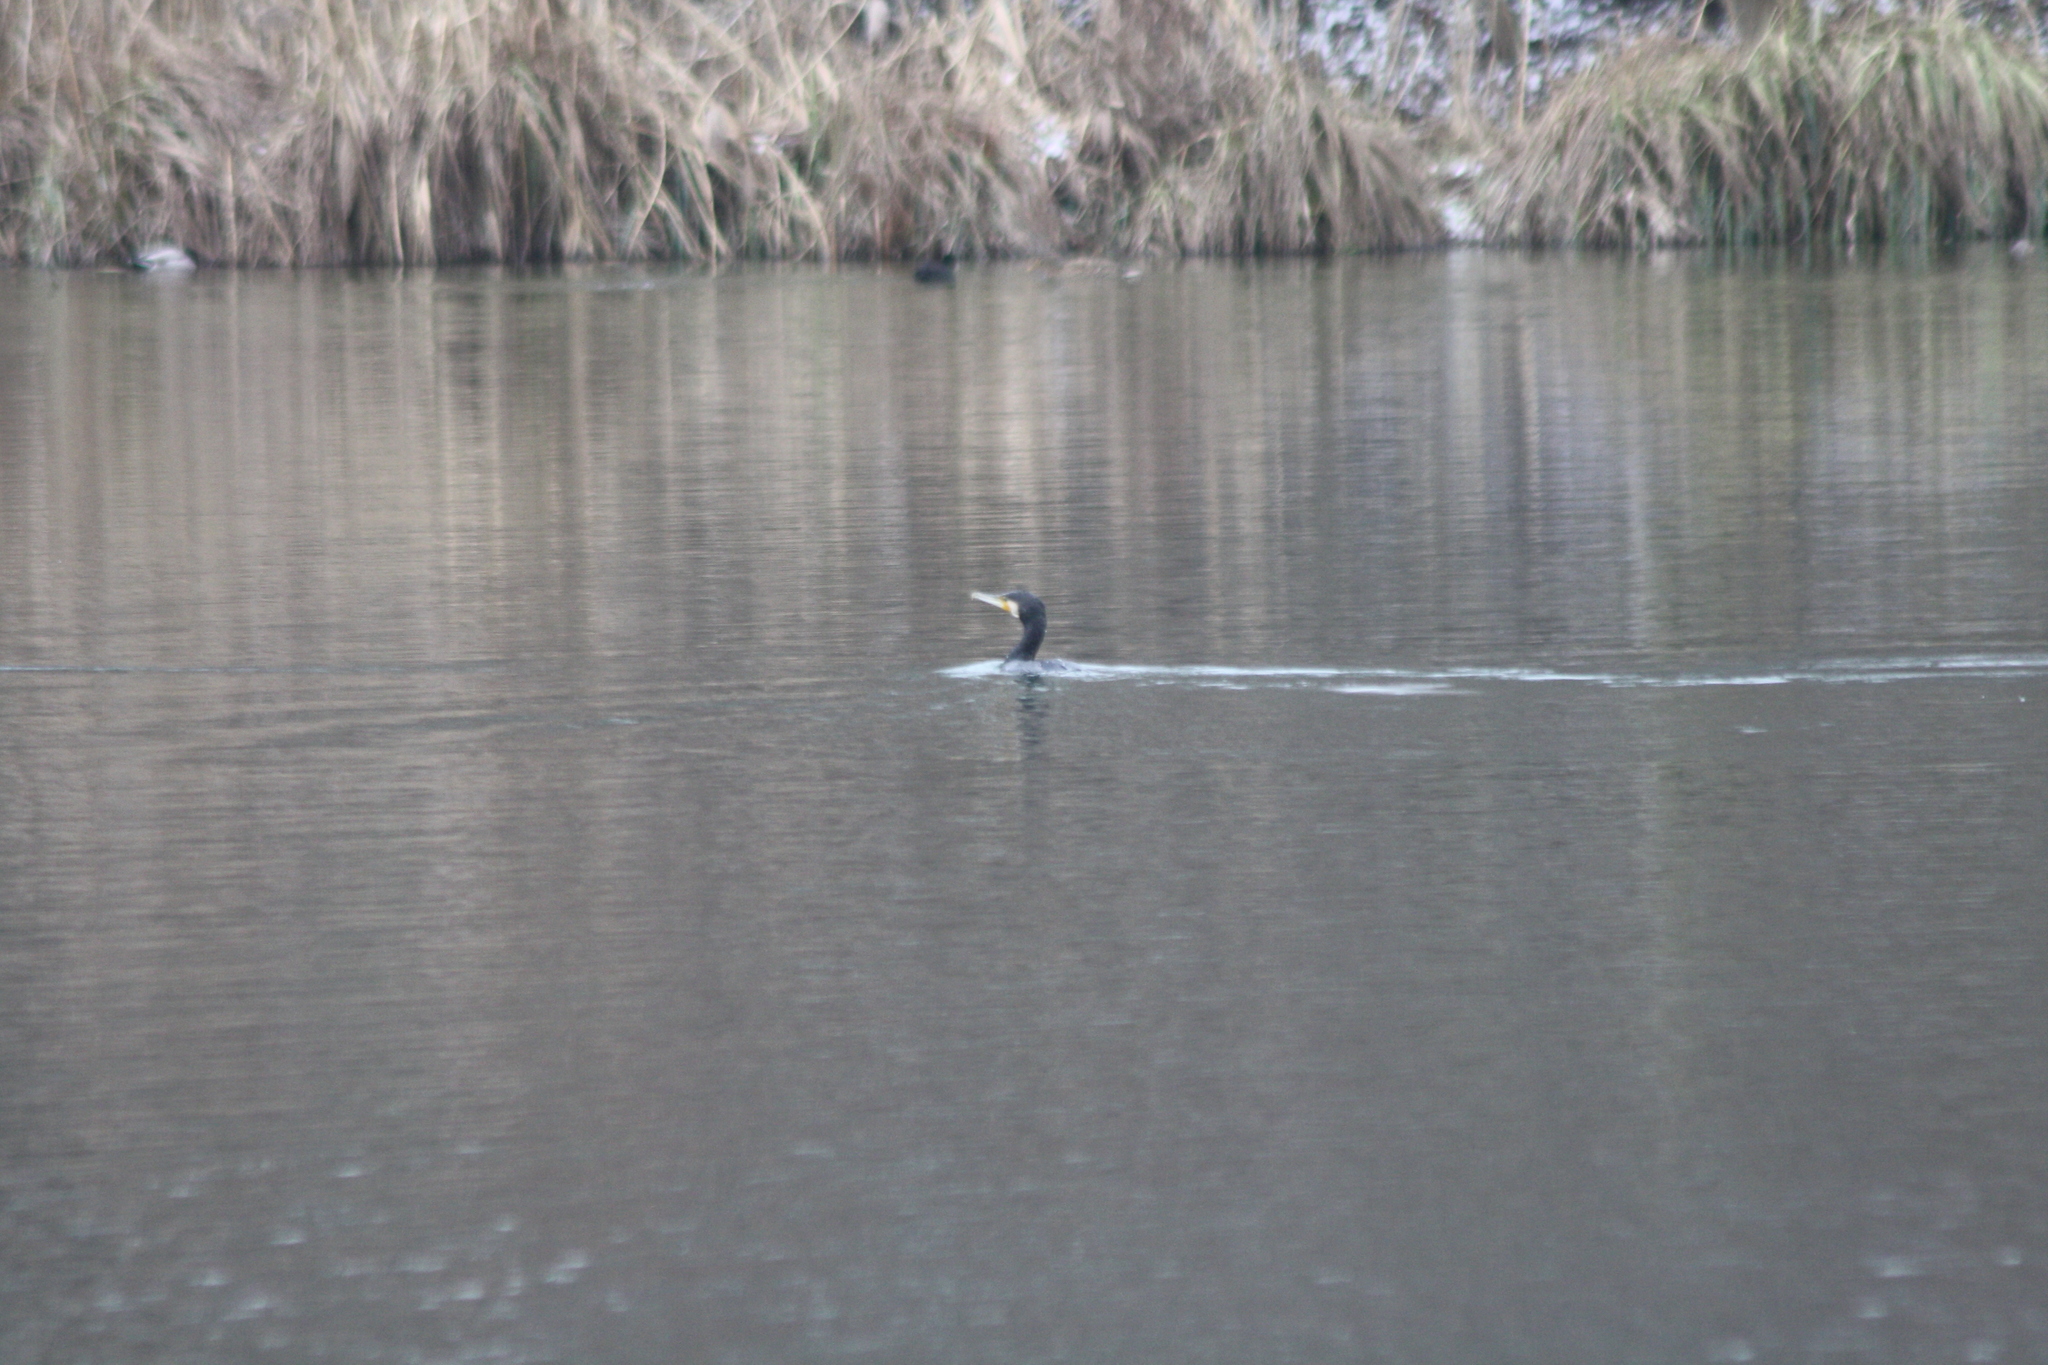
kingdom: Animalia
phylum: Chordata
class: Aves
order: Suliformes
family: Phalacrocoracidae
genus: Phalacrocorax
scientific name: Phalacrocorax carbo
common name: Great cormorant
